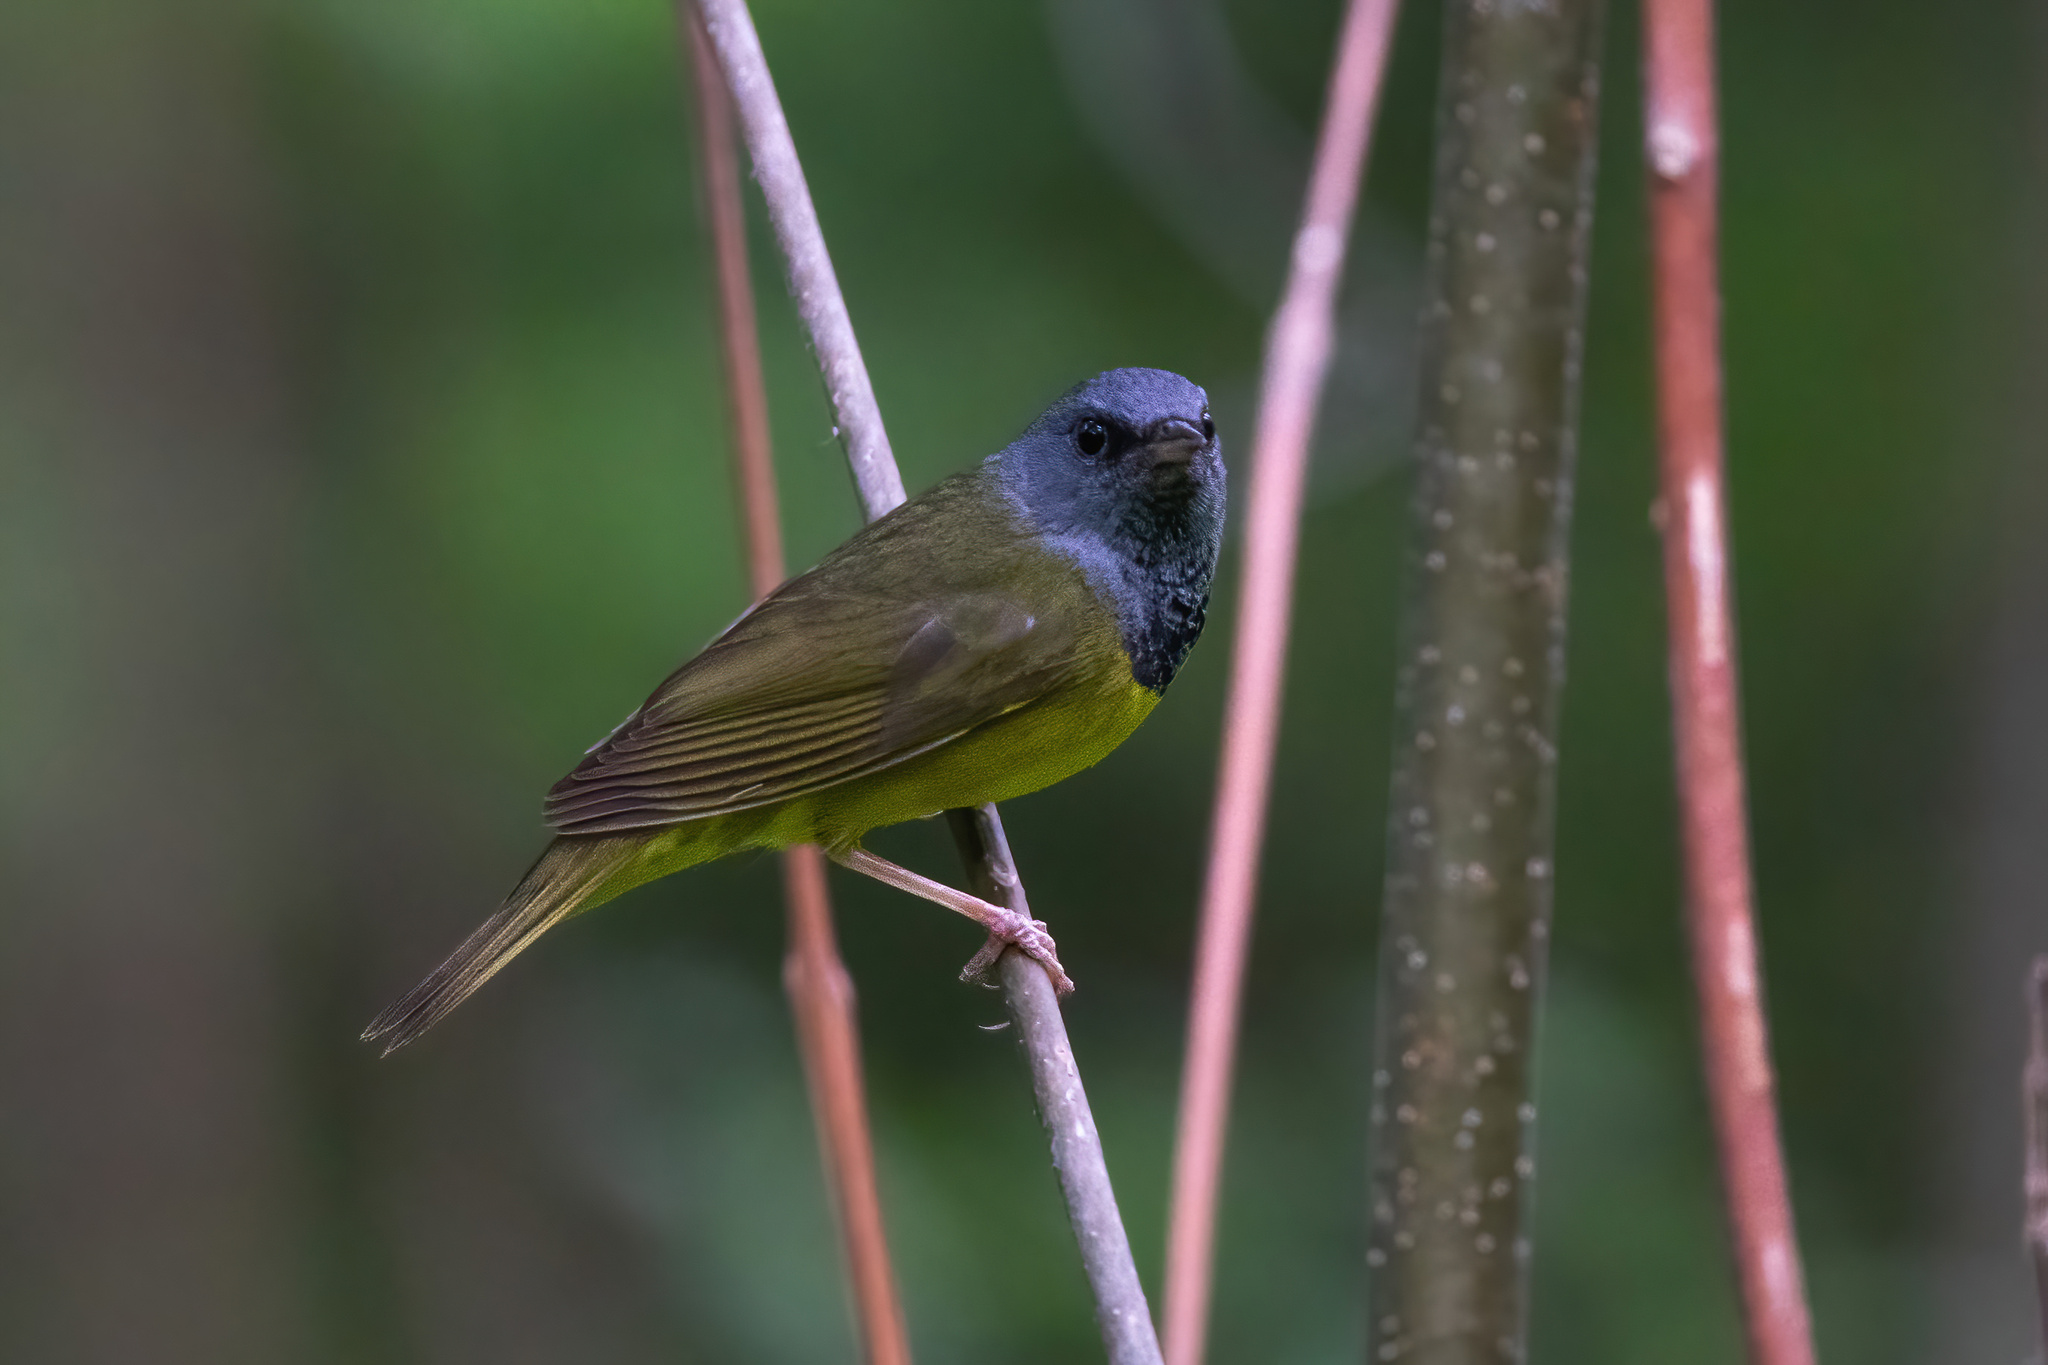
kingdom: Animalia
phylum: Chordata
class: Aves
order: Passeriformes
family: Parulidae
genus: Geothlypis
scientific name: Geothlypis philadelphia
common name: Mourning warbler
